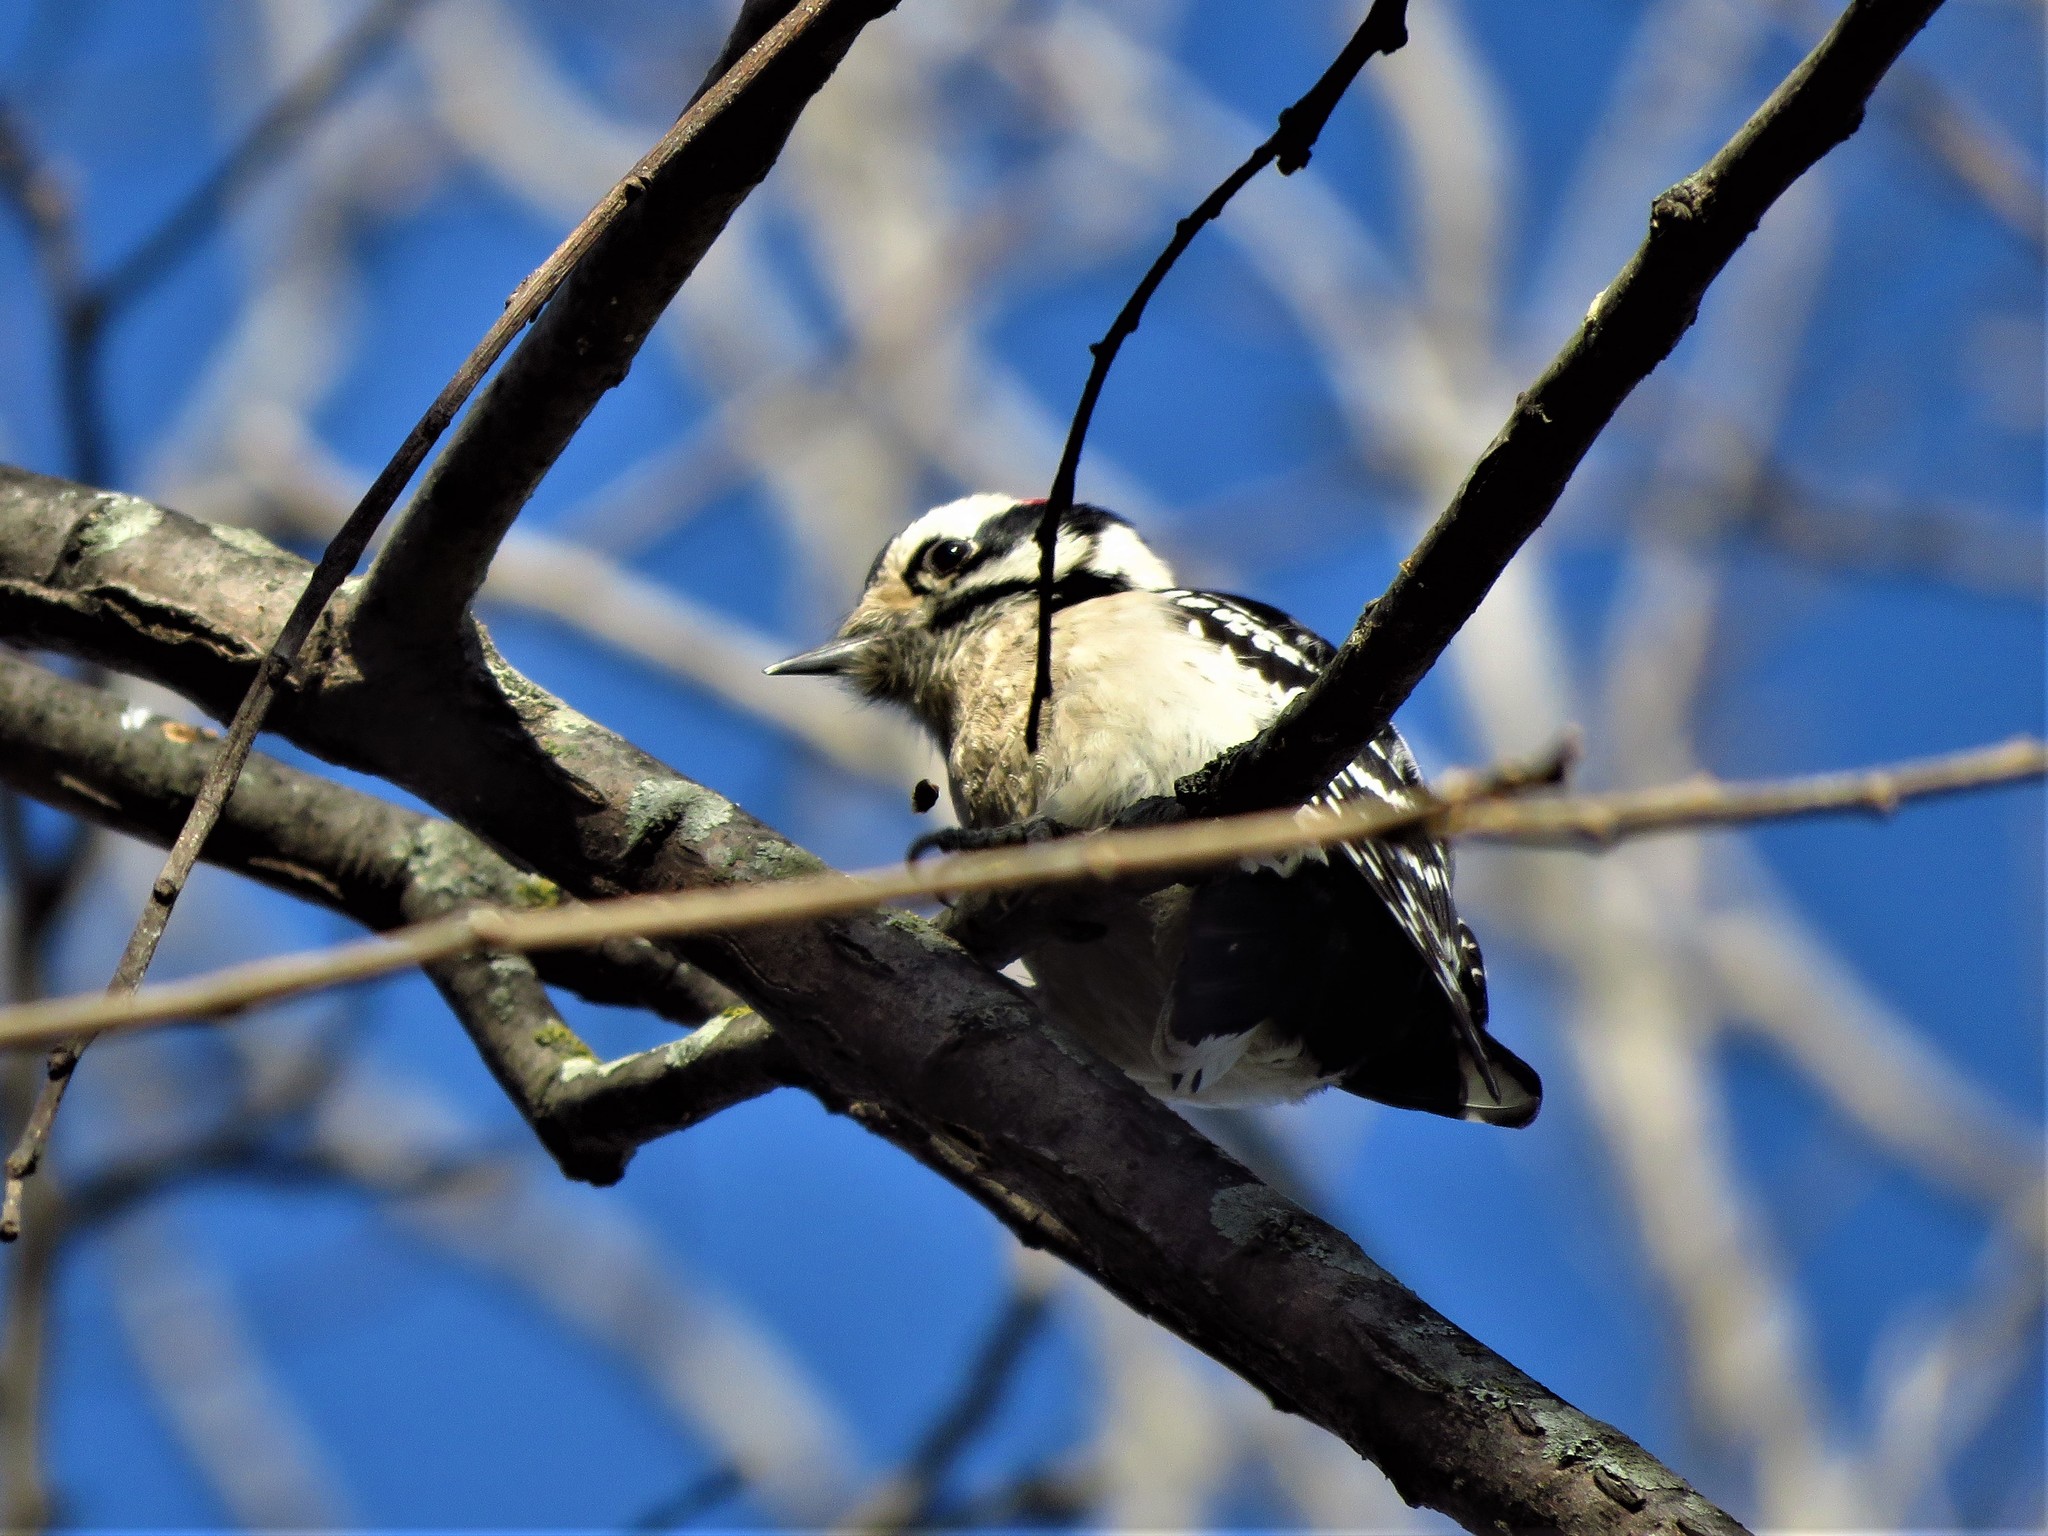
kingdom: Animalia
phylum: Chordata
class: Aves
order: Piciformes
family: Picidae
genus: Dryobates
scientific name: Dryobates pubescens
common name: Downy woodpecker
